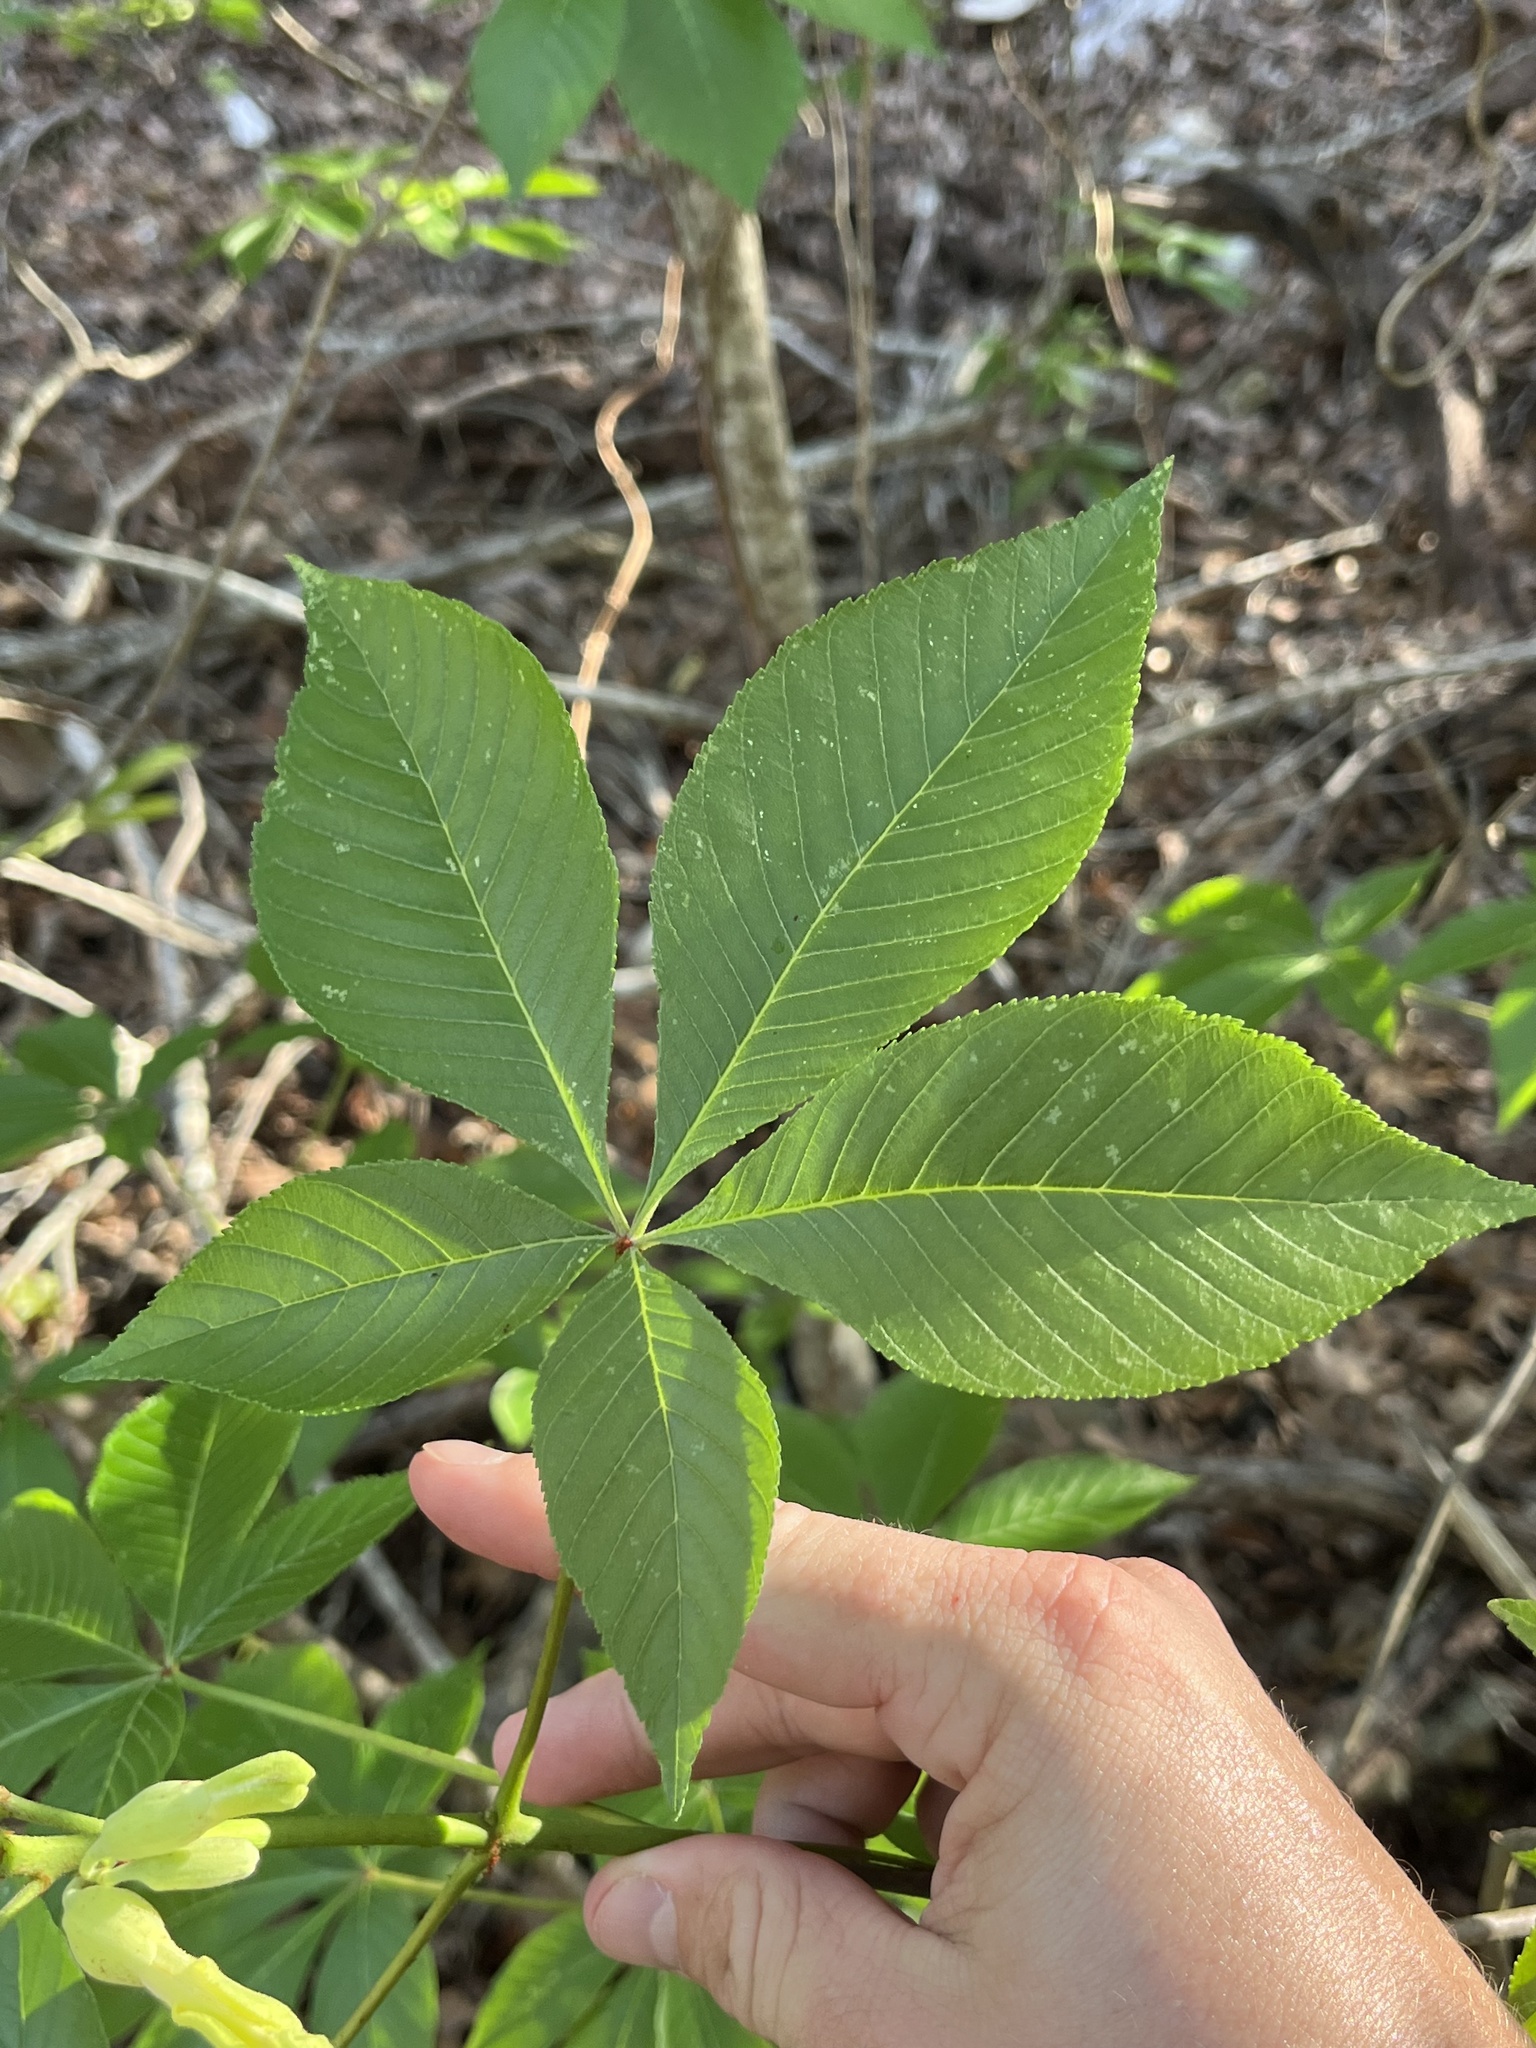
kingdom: Plantae
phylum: Tracheophyta
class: Magnoliopsida
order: Sapindales
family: Sapindaceae
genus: Aesculus
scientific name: Aesculus pavia
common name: Red buckeye
